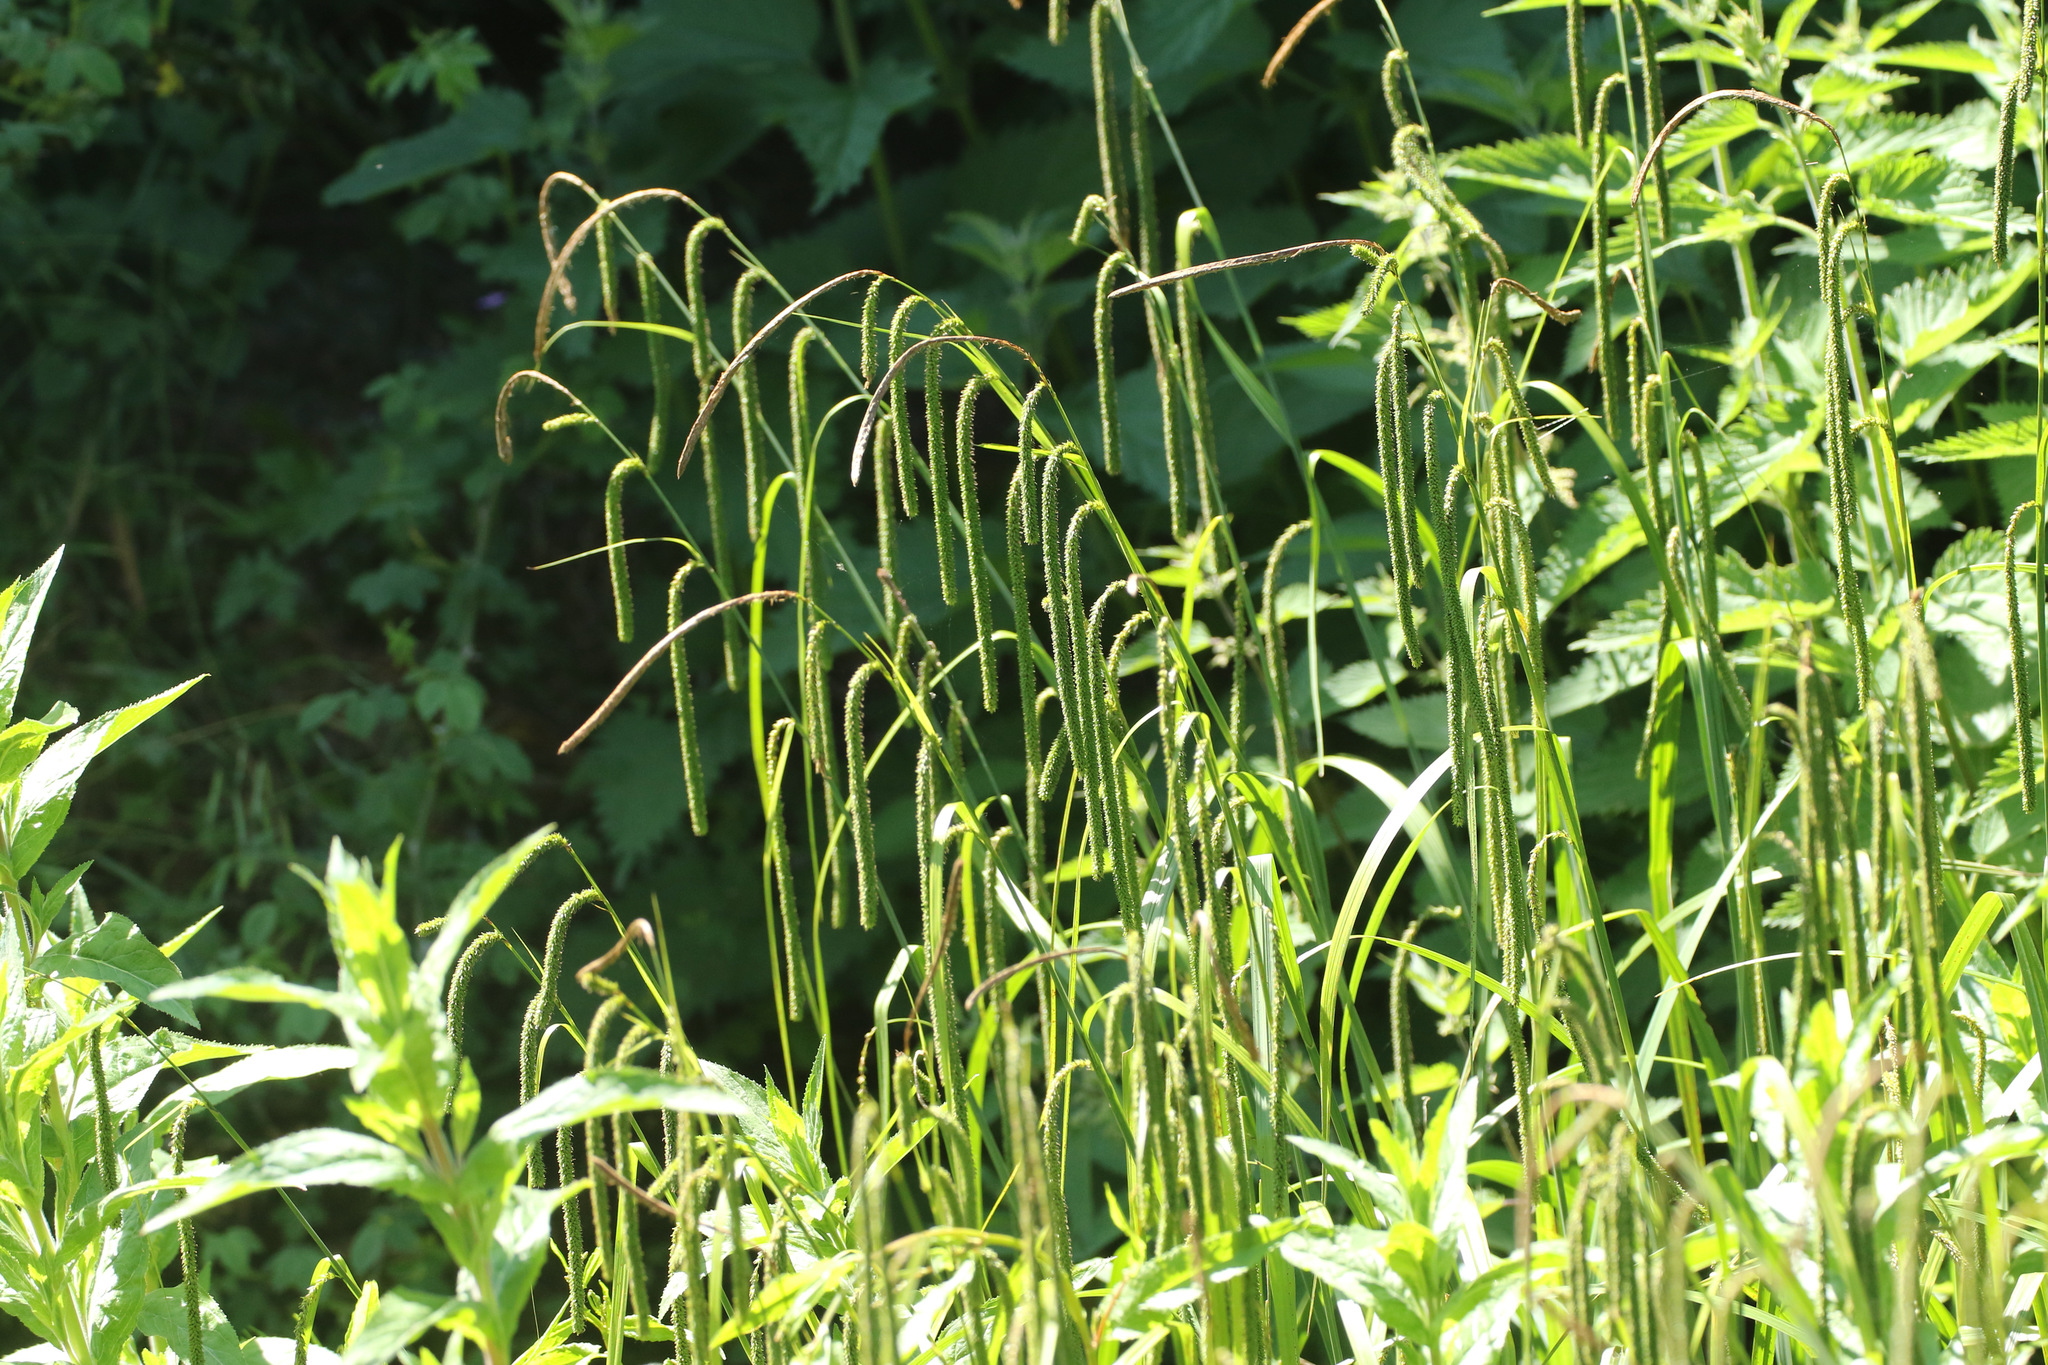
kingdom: Plantae
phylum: Tracheophyta
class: Liliopsida
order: Poales
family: Cyperaceae
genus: Carex
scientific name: Carex pendula
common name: Pendulous sedge
